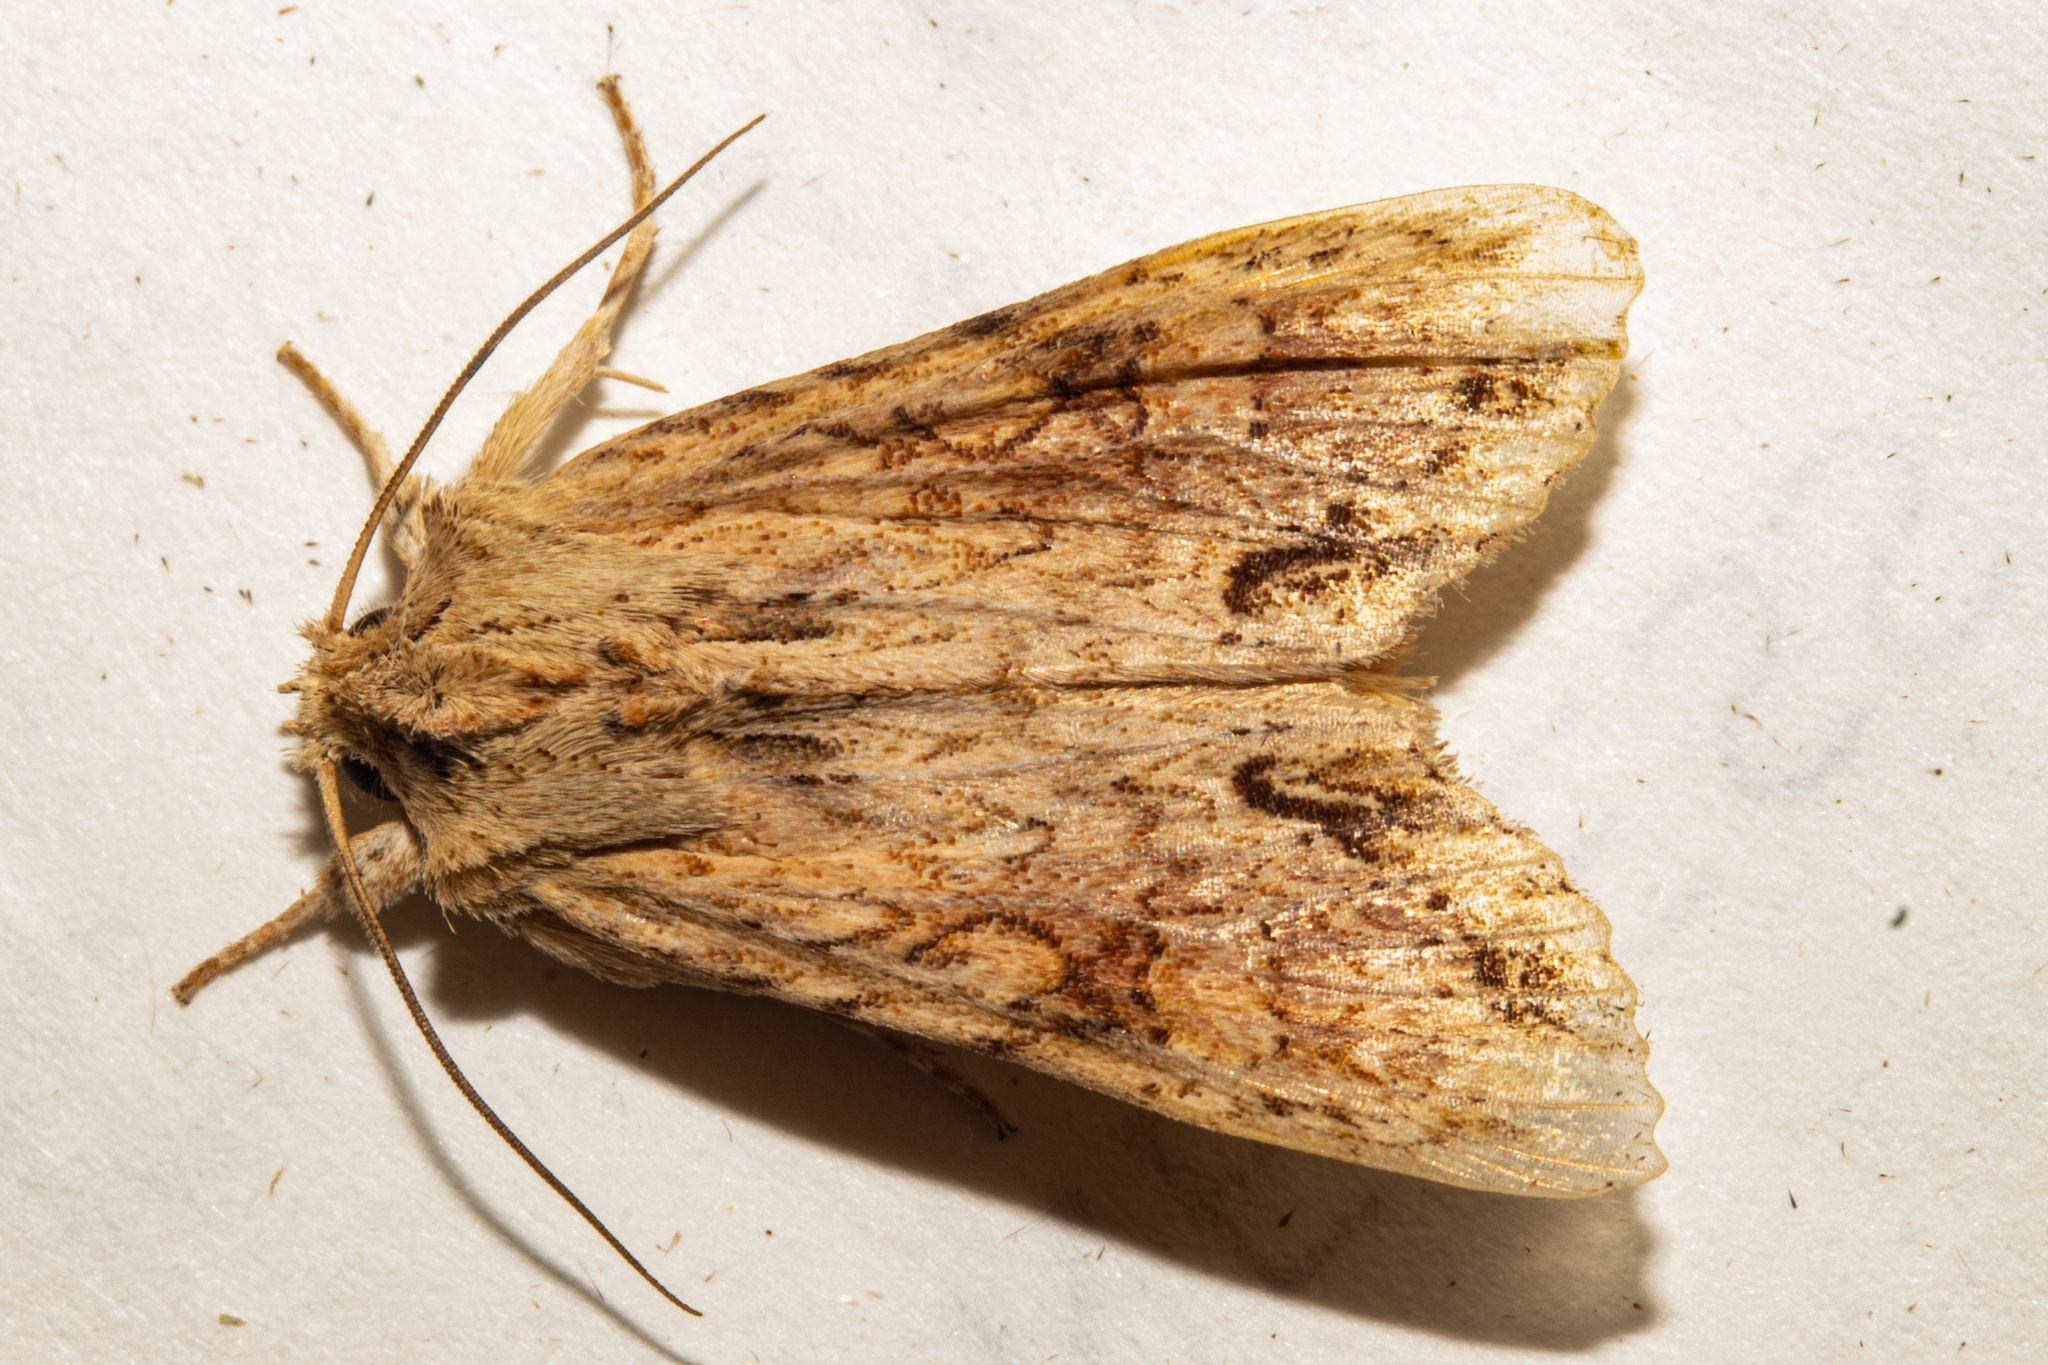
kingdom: Animalia
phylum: Arthropoda
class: Insecta
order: Lepidoptera
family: Noctuidae
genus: Ichneutica
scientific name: Ichneutica mollis
